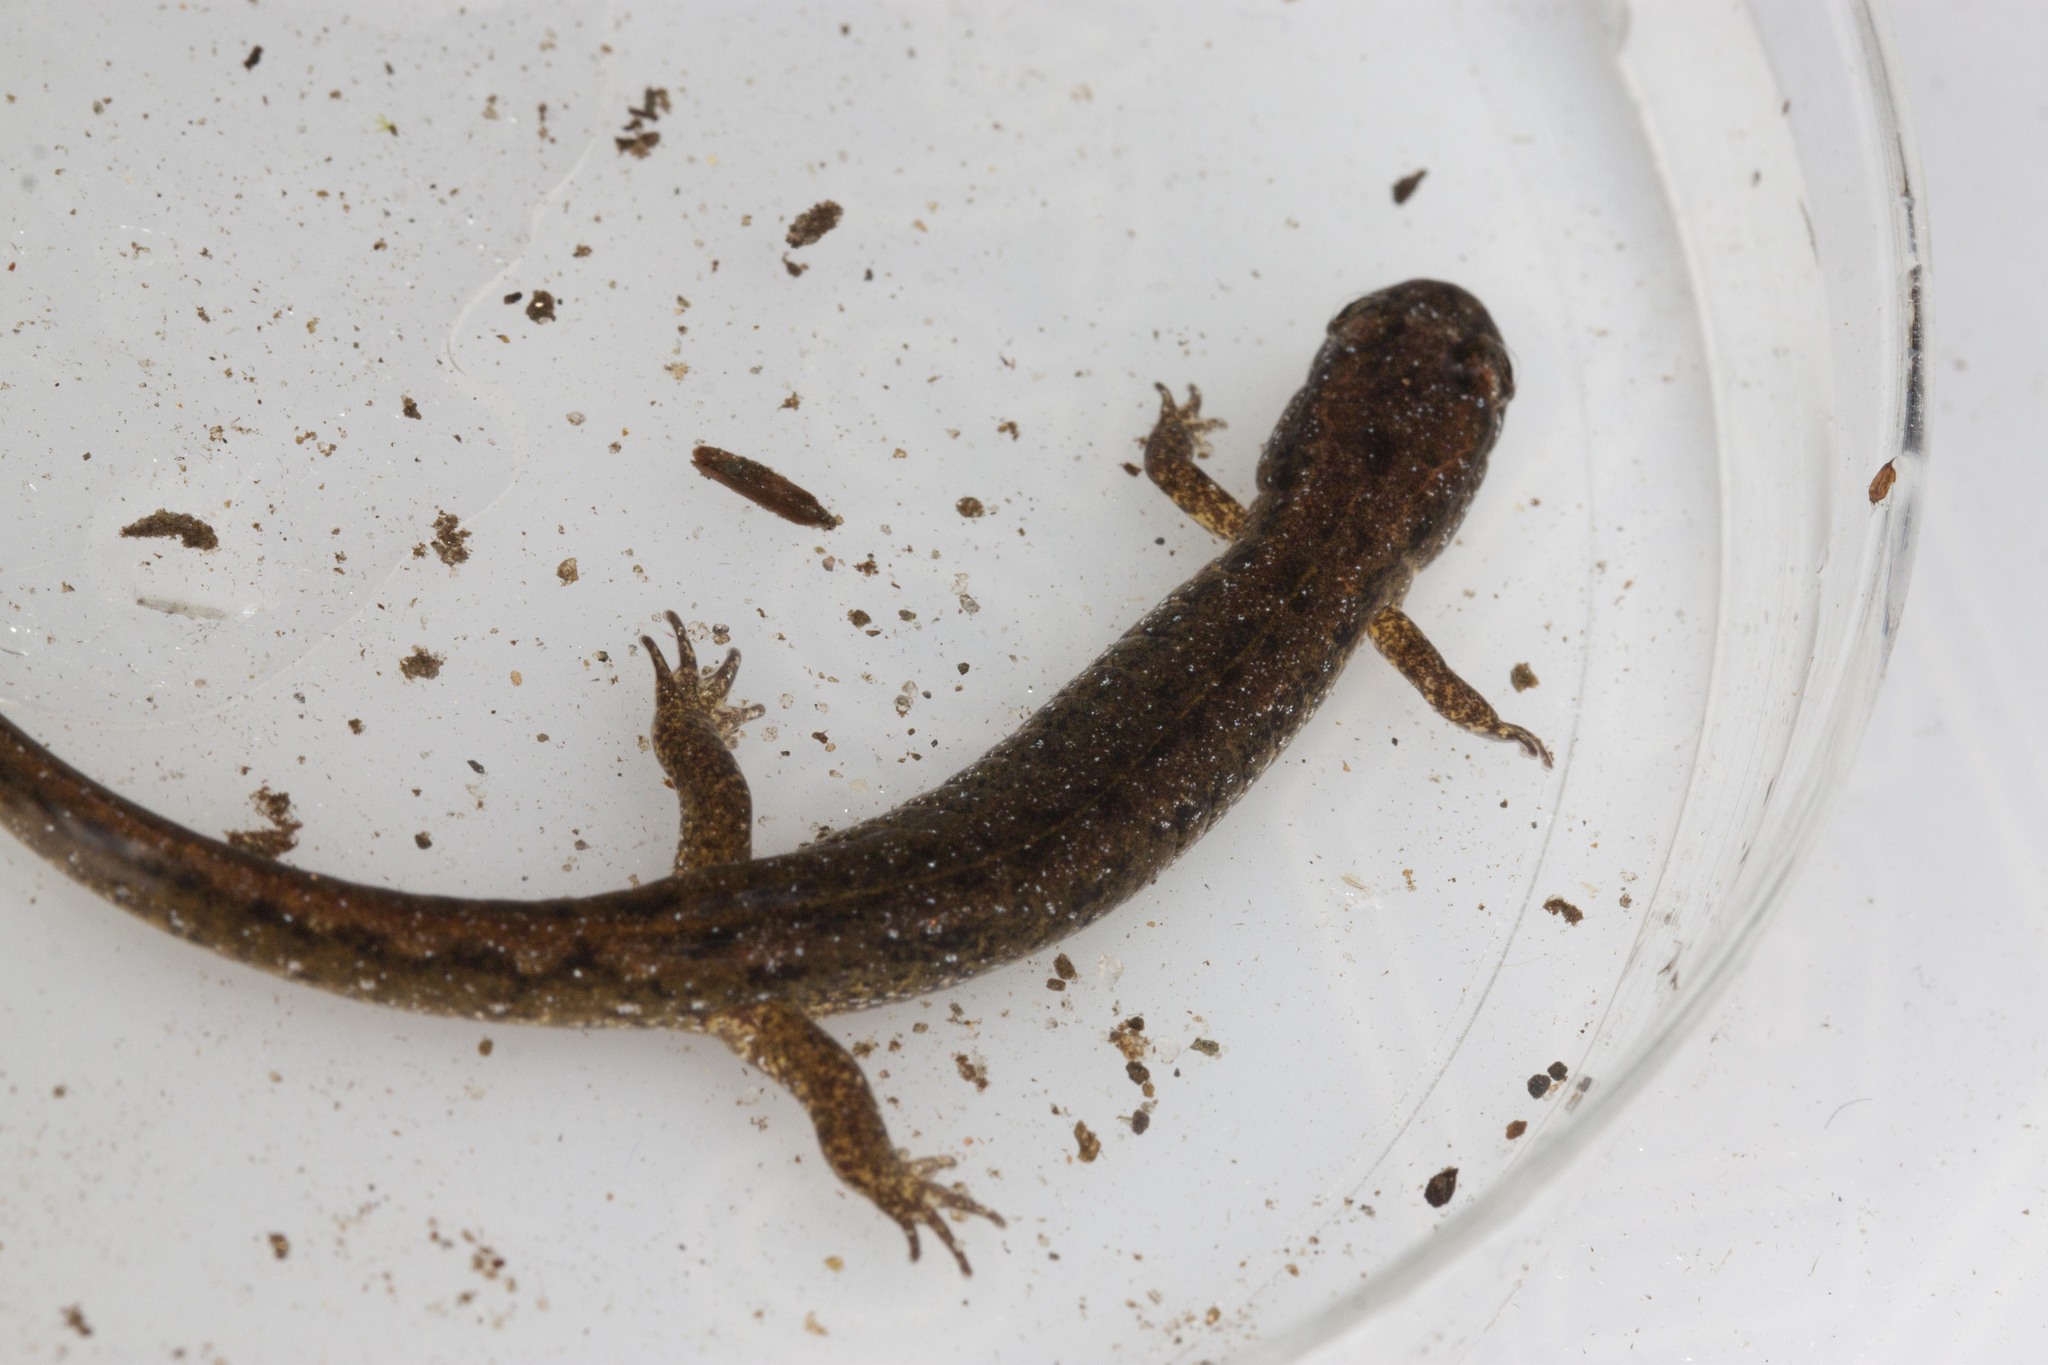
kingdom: Animalia
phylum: Chordata
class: Amphibia
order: Caudata
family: Plethodontidae
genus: Desmognathus
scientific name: Desmognathus fuscus
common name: Northern dusky salamander
